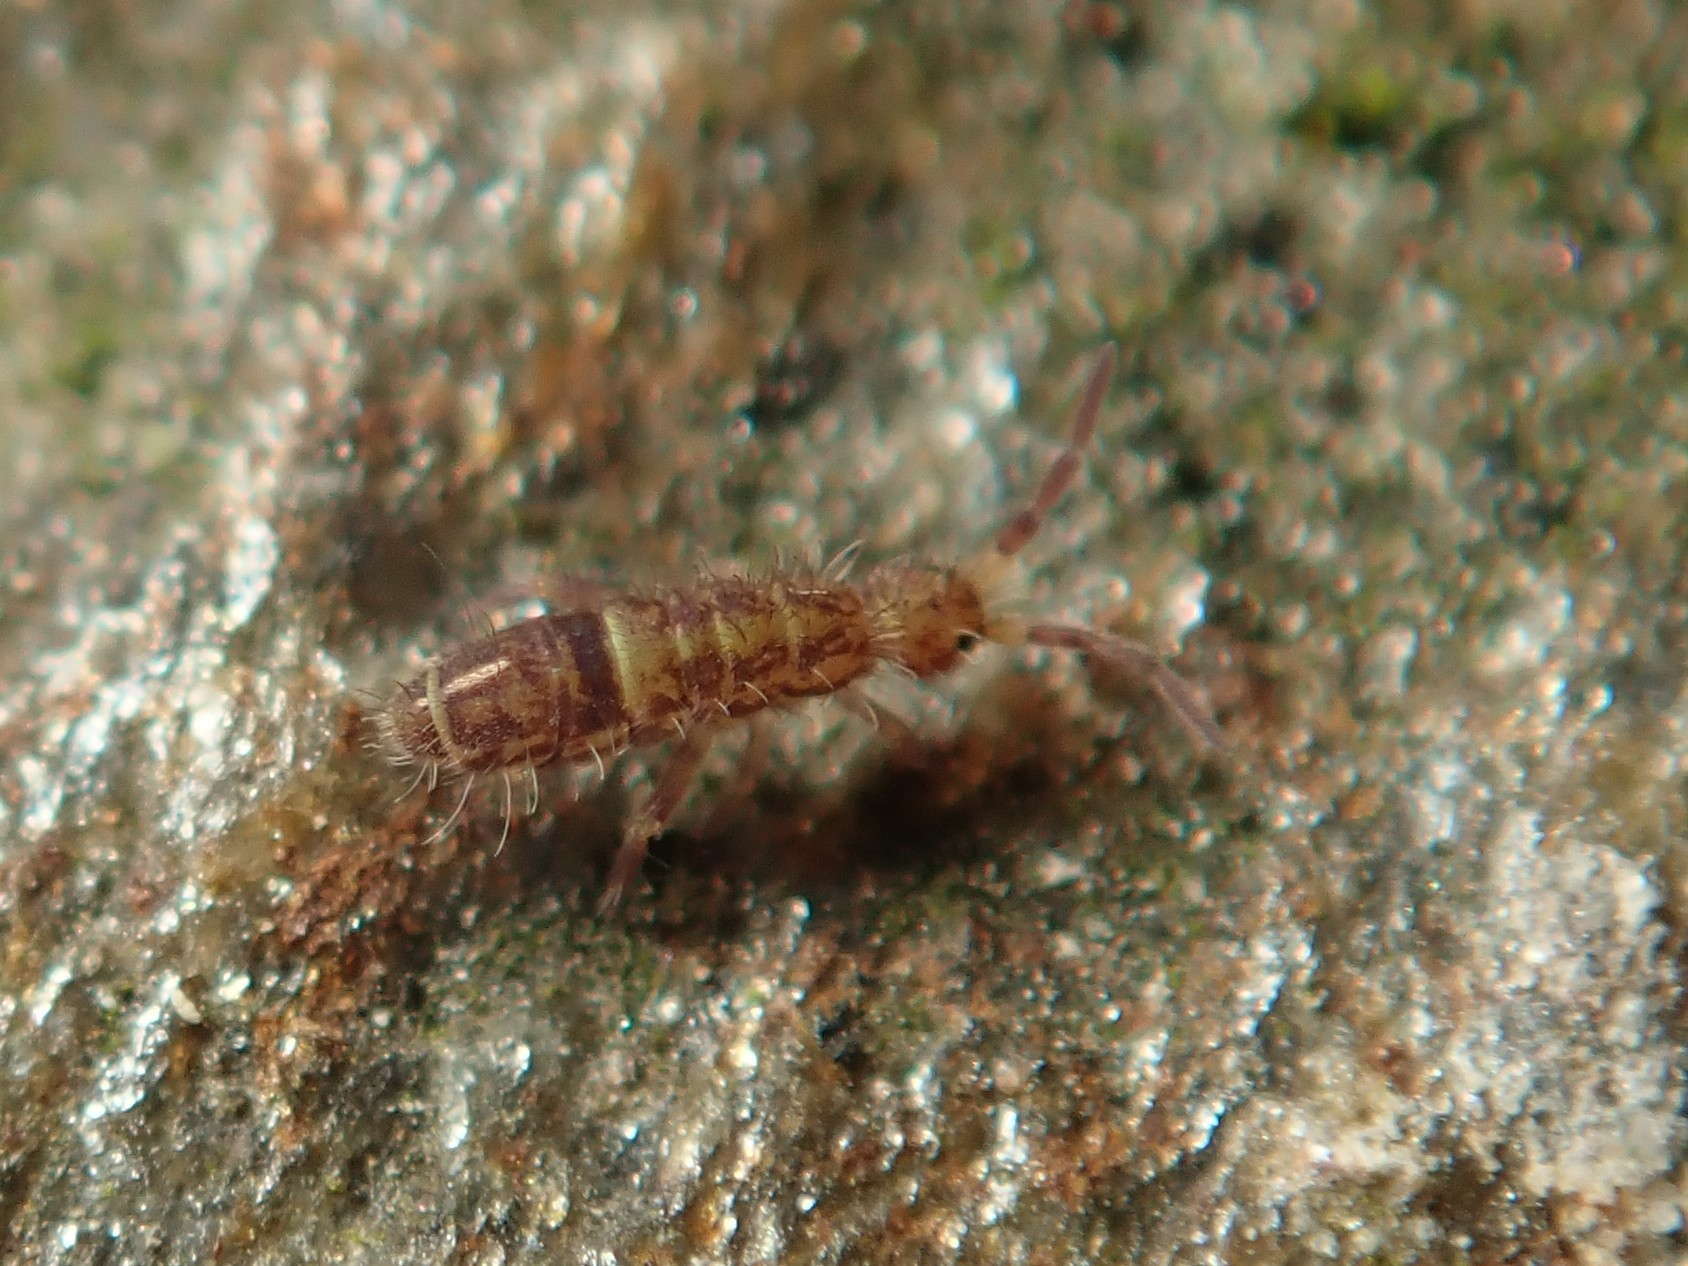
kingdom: Animalia
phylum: Arthropoda
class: Collembola
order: Entomobryomorpha
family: Orchesellidae
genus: Orchesella
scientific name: Orchesella cincta
